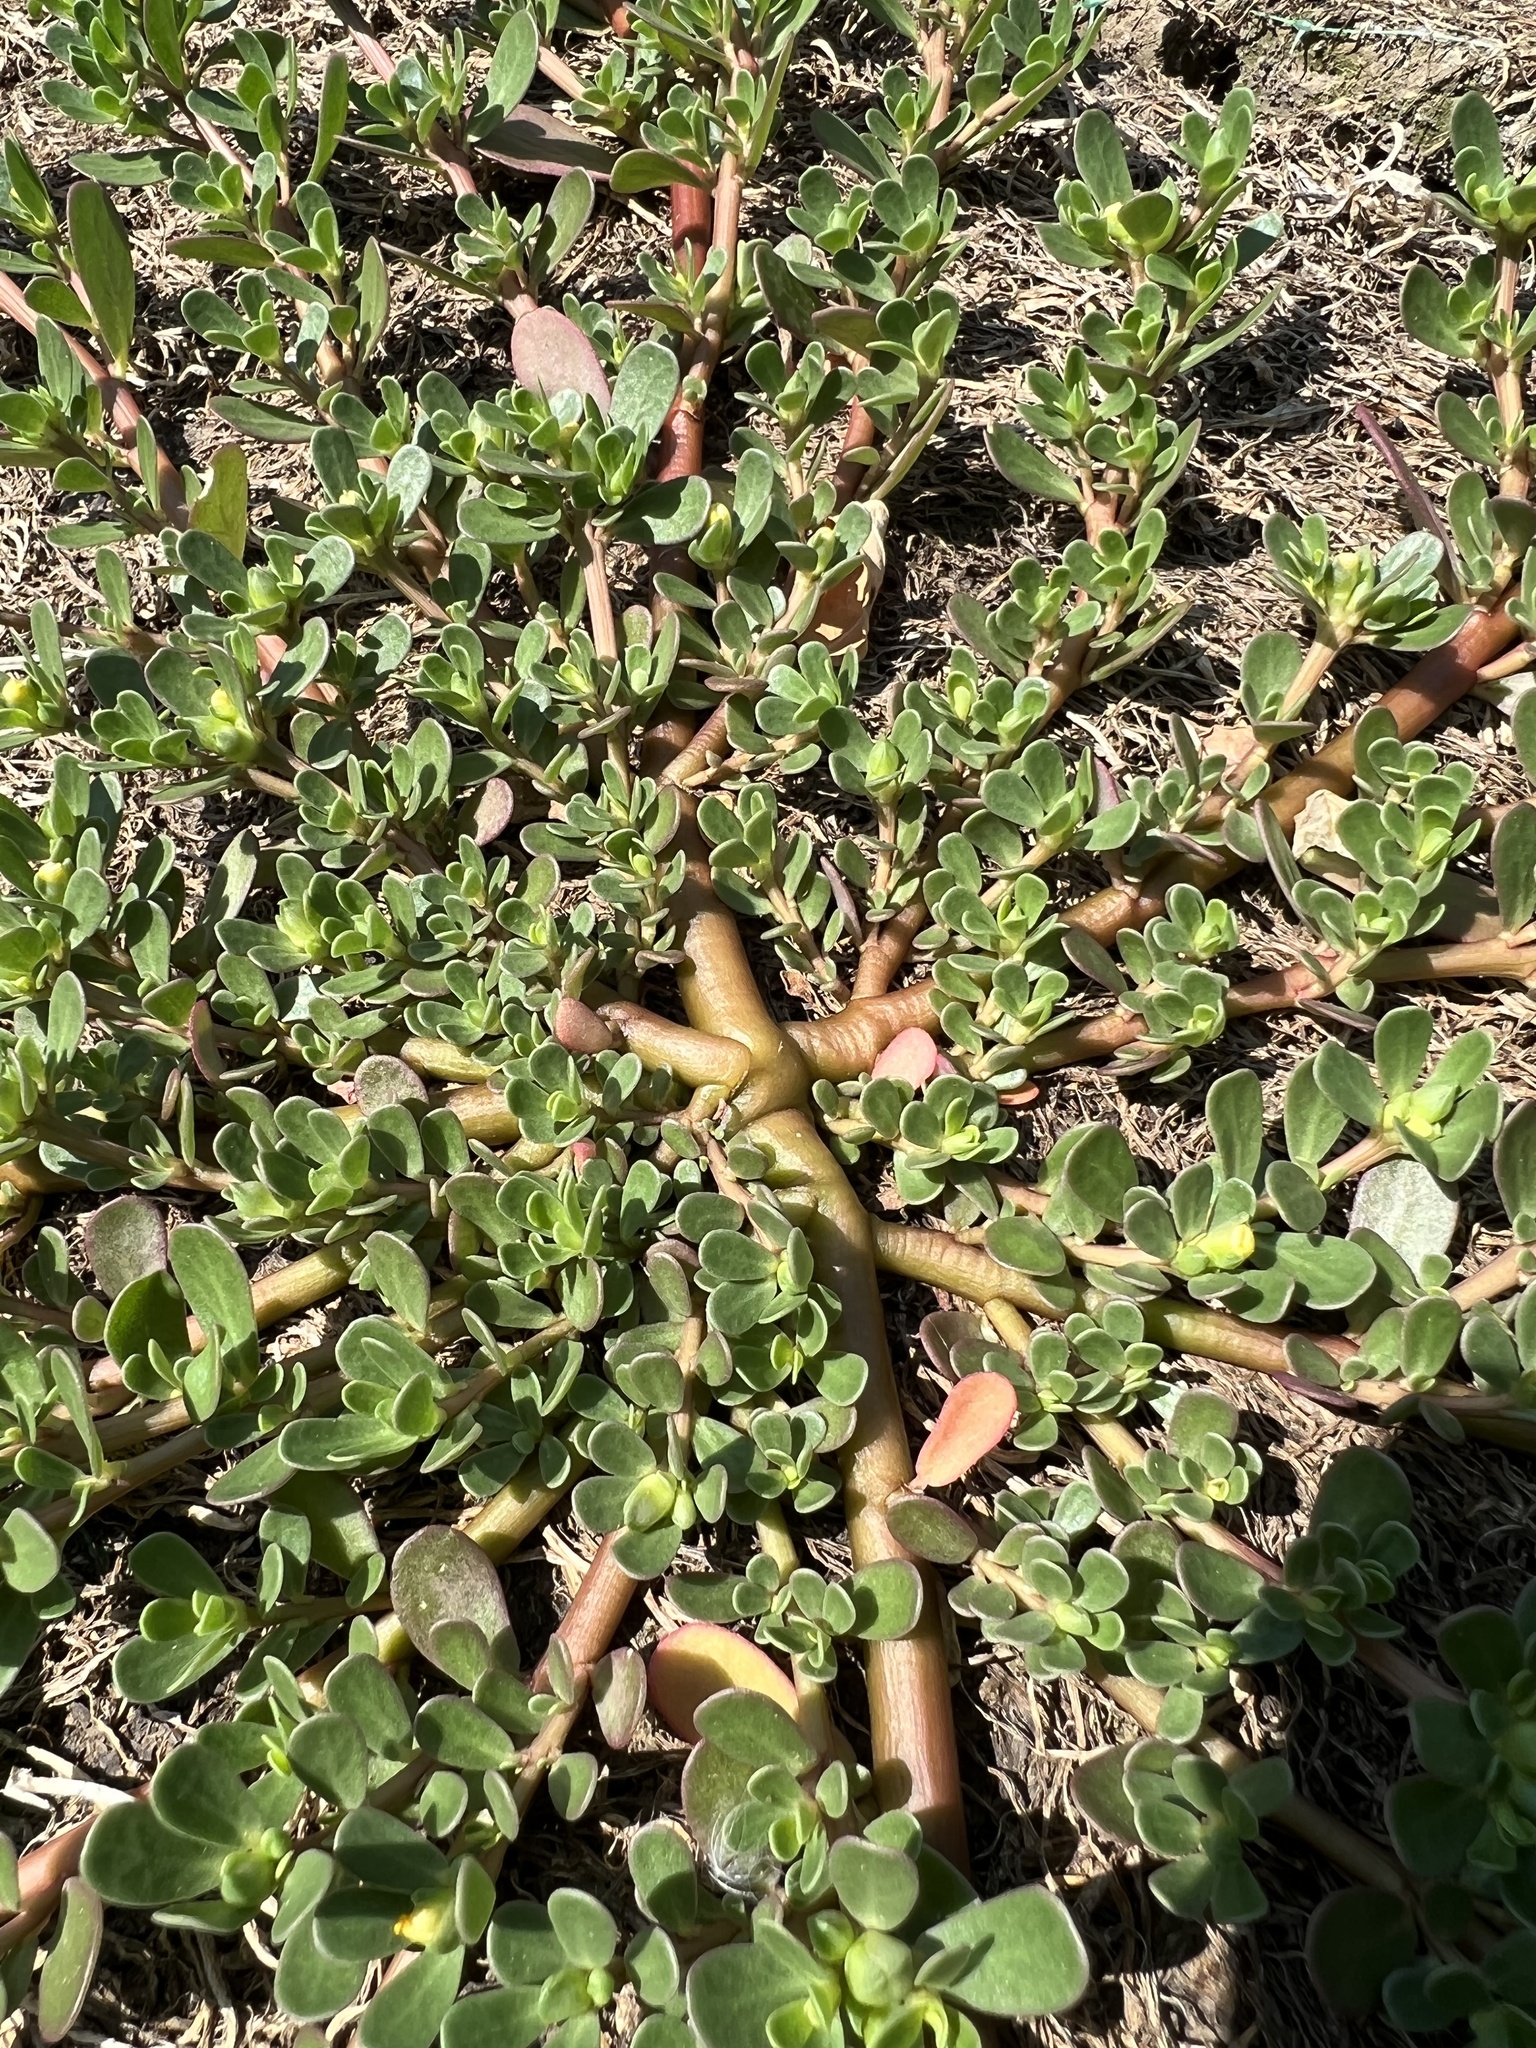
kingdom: Plantae
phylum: Tracheophyta
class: Magnoliopsida
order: Caryophyllales
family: Portulacaceae
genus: Portulaca
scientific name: Portulaca oleracea
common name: Common purslane
